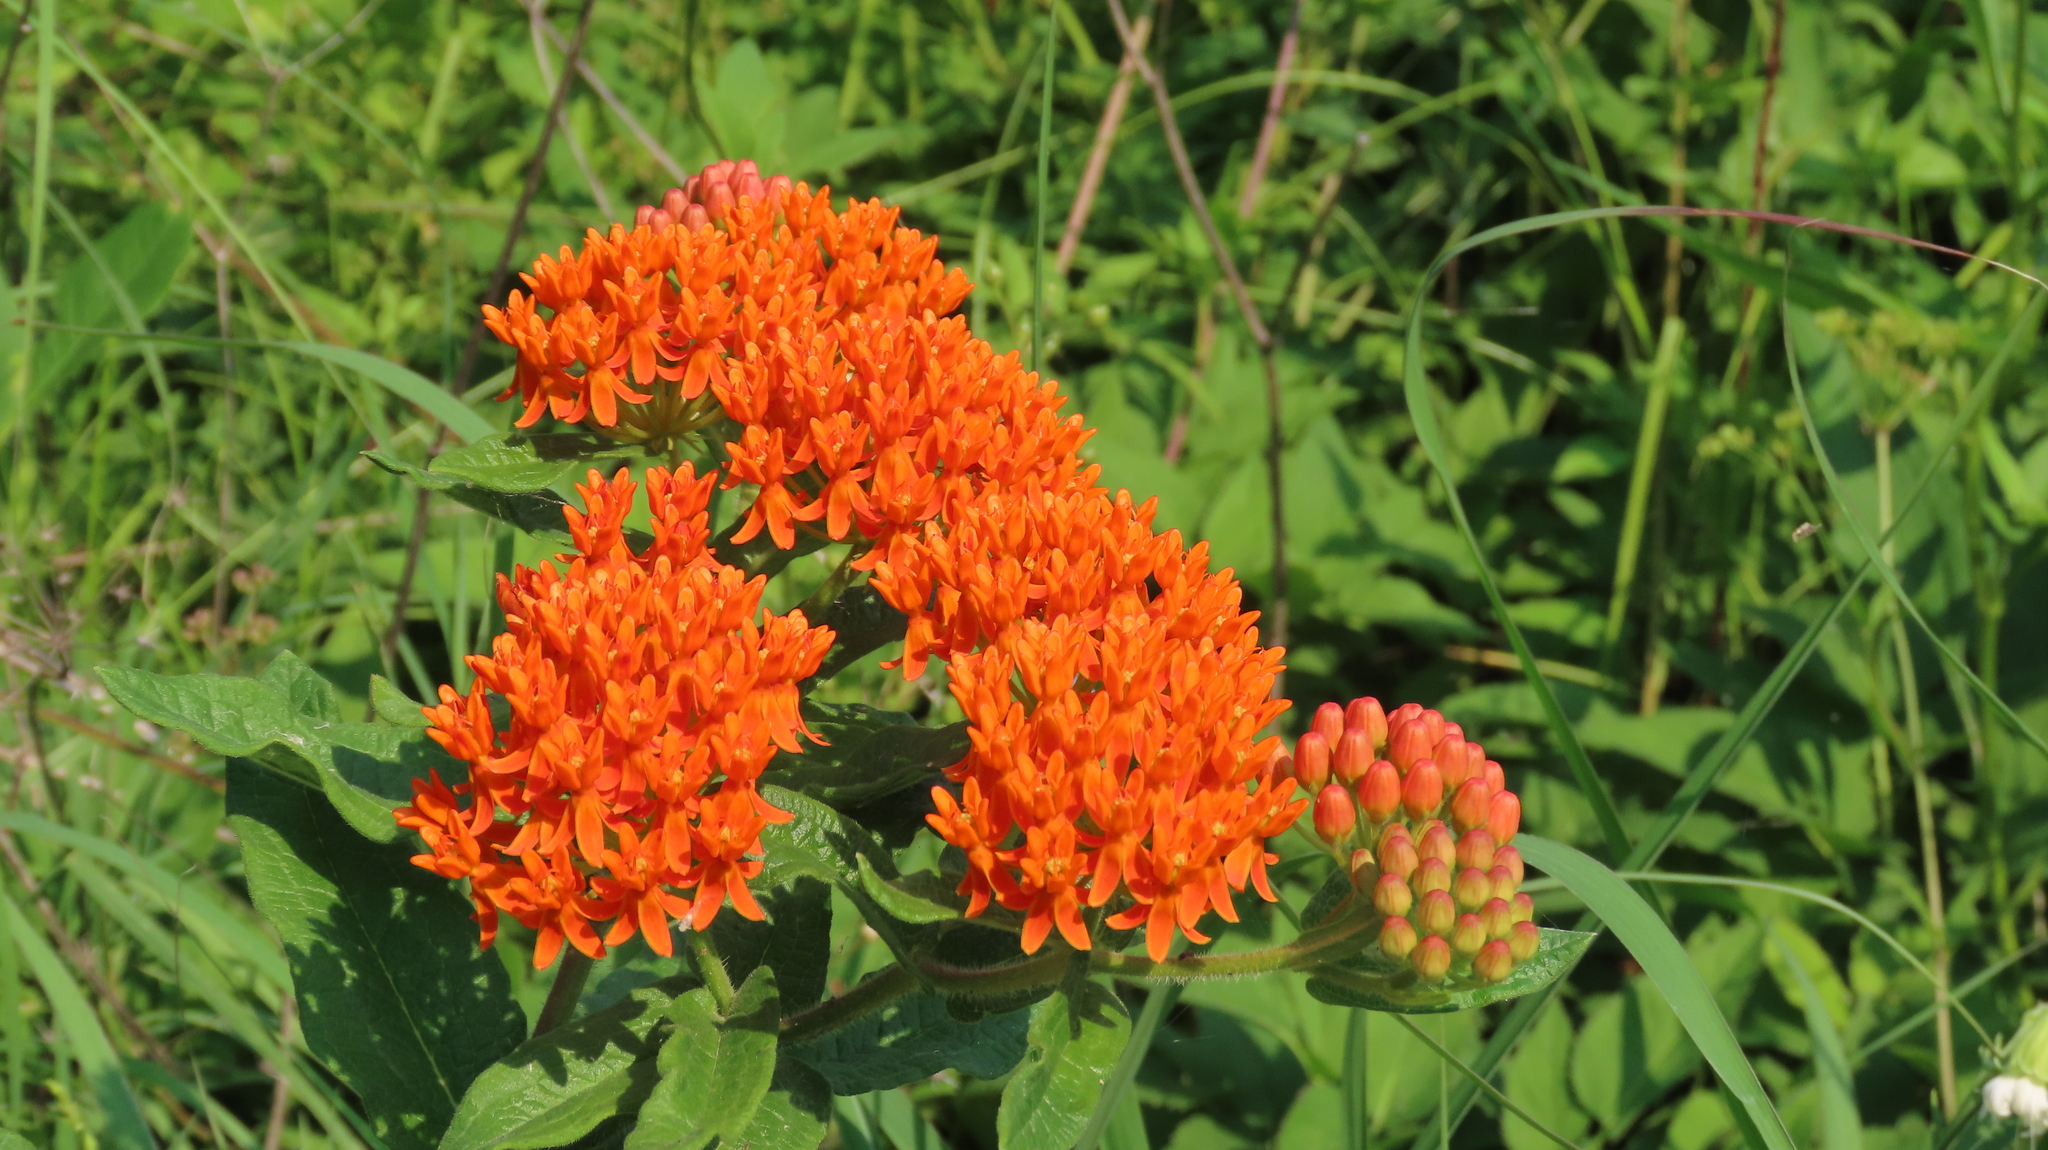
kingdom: Plantae
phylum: Tracheophyta
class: Magnoliopsida
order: Gentianales
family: Apocynaceae
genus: Asclepias
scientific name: Asclepias tuberosa
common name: Butterfly milkweed
